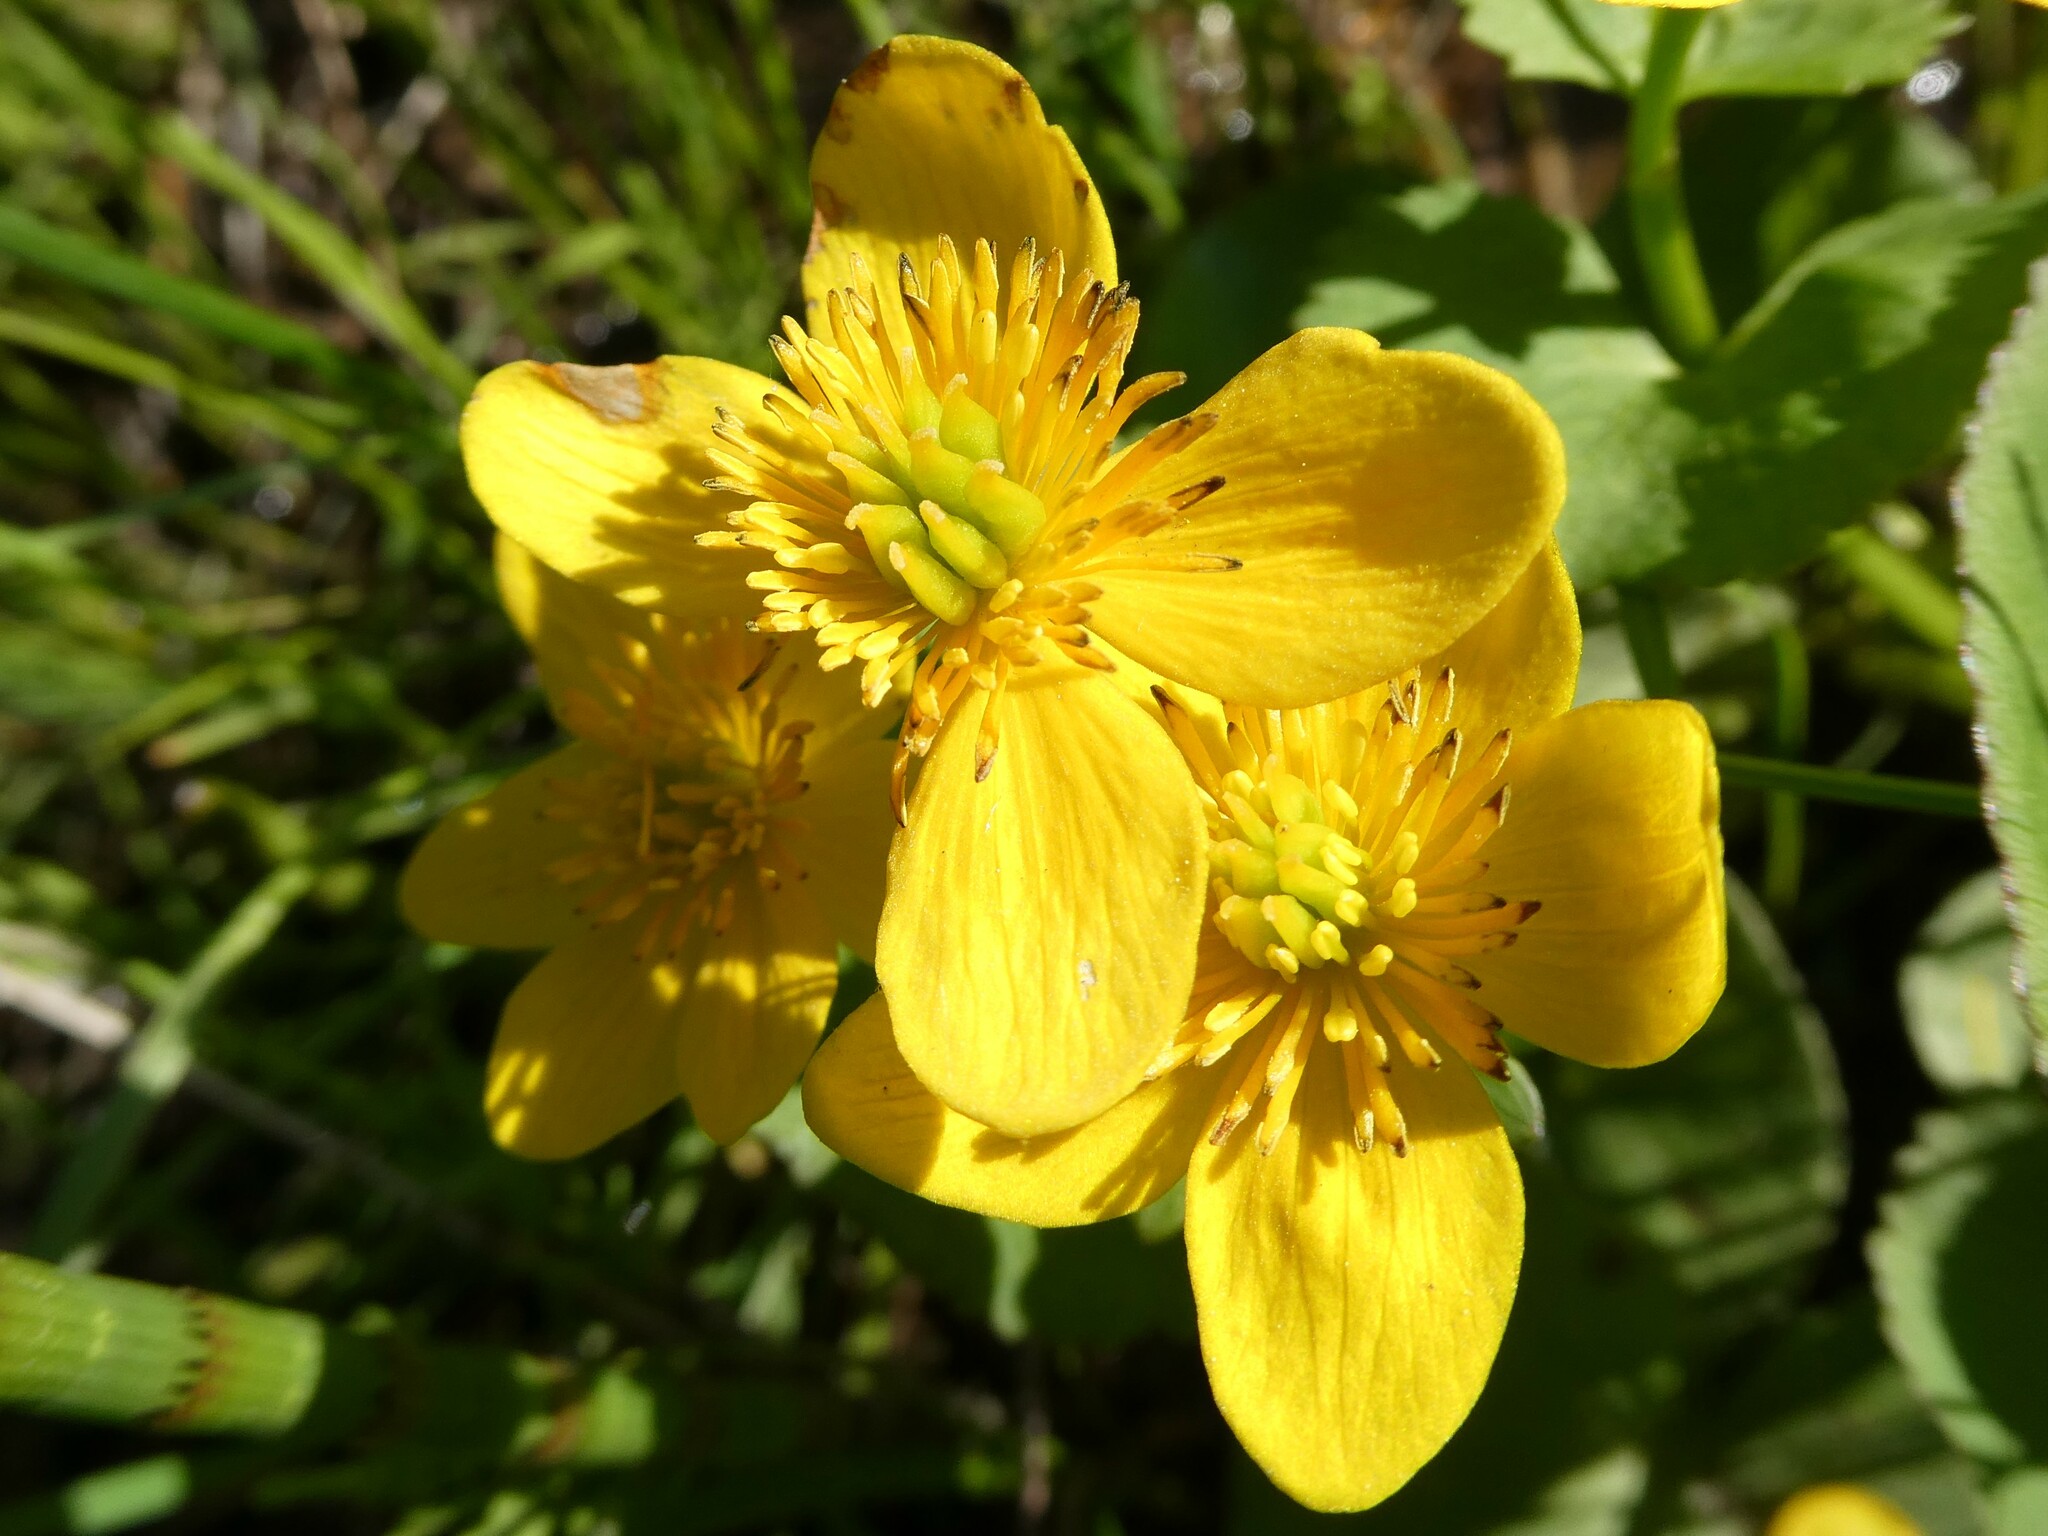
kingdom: Plantae
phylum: Tracheophyta
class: Magnoliopsida
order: Ranunculales
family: Ranunculaceae
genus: Caltha
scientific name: Caltha palustris
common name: Marsh marigold
